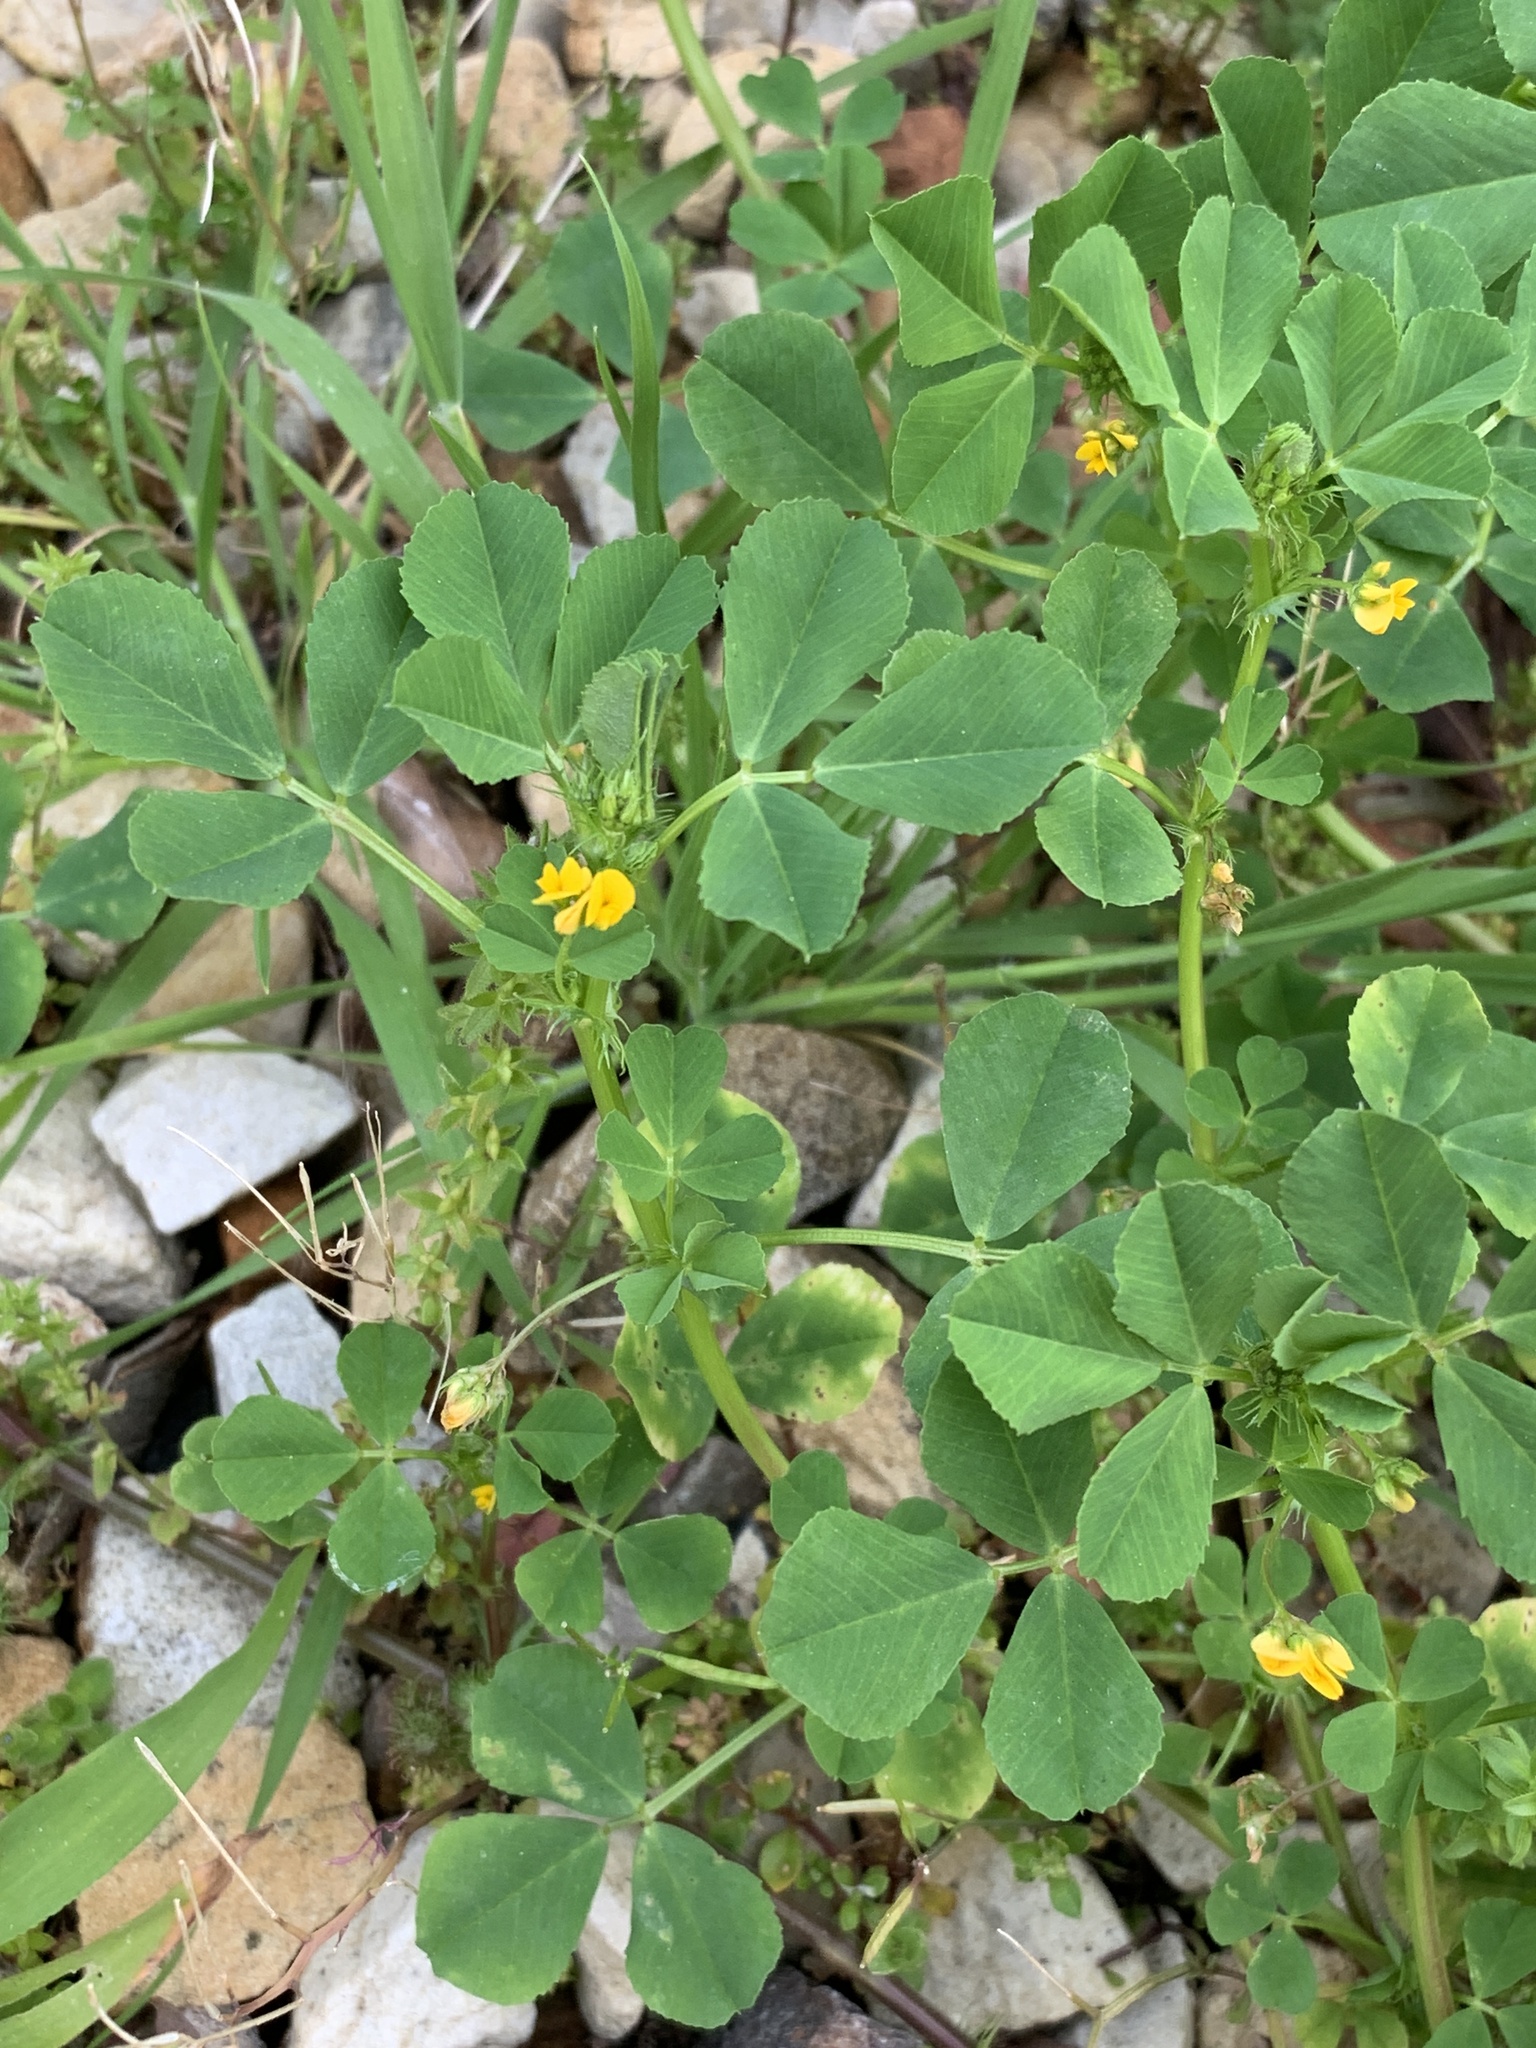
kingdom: Plantae
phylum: Tracheophyta
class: Magnoliopsida
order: Fabales
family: Fabaceae
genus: Medicago
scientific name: Medicago polymorpha
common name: Burclover
